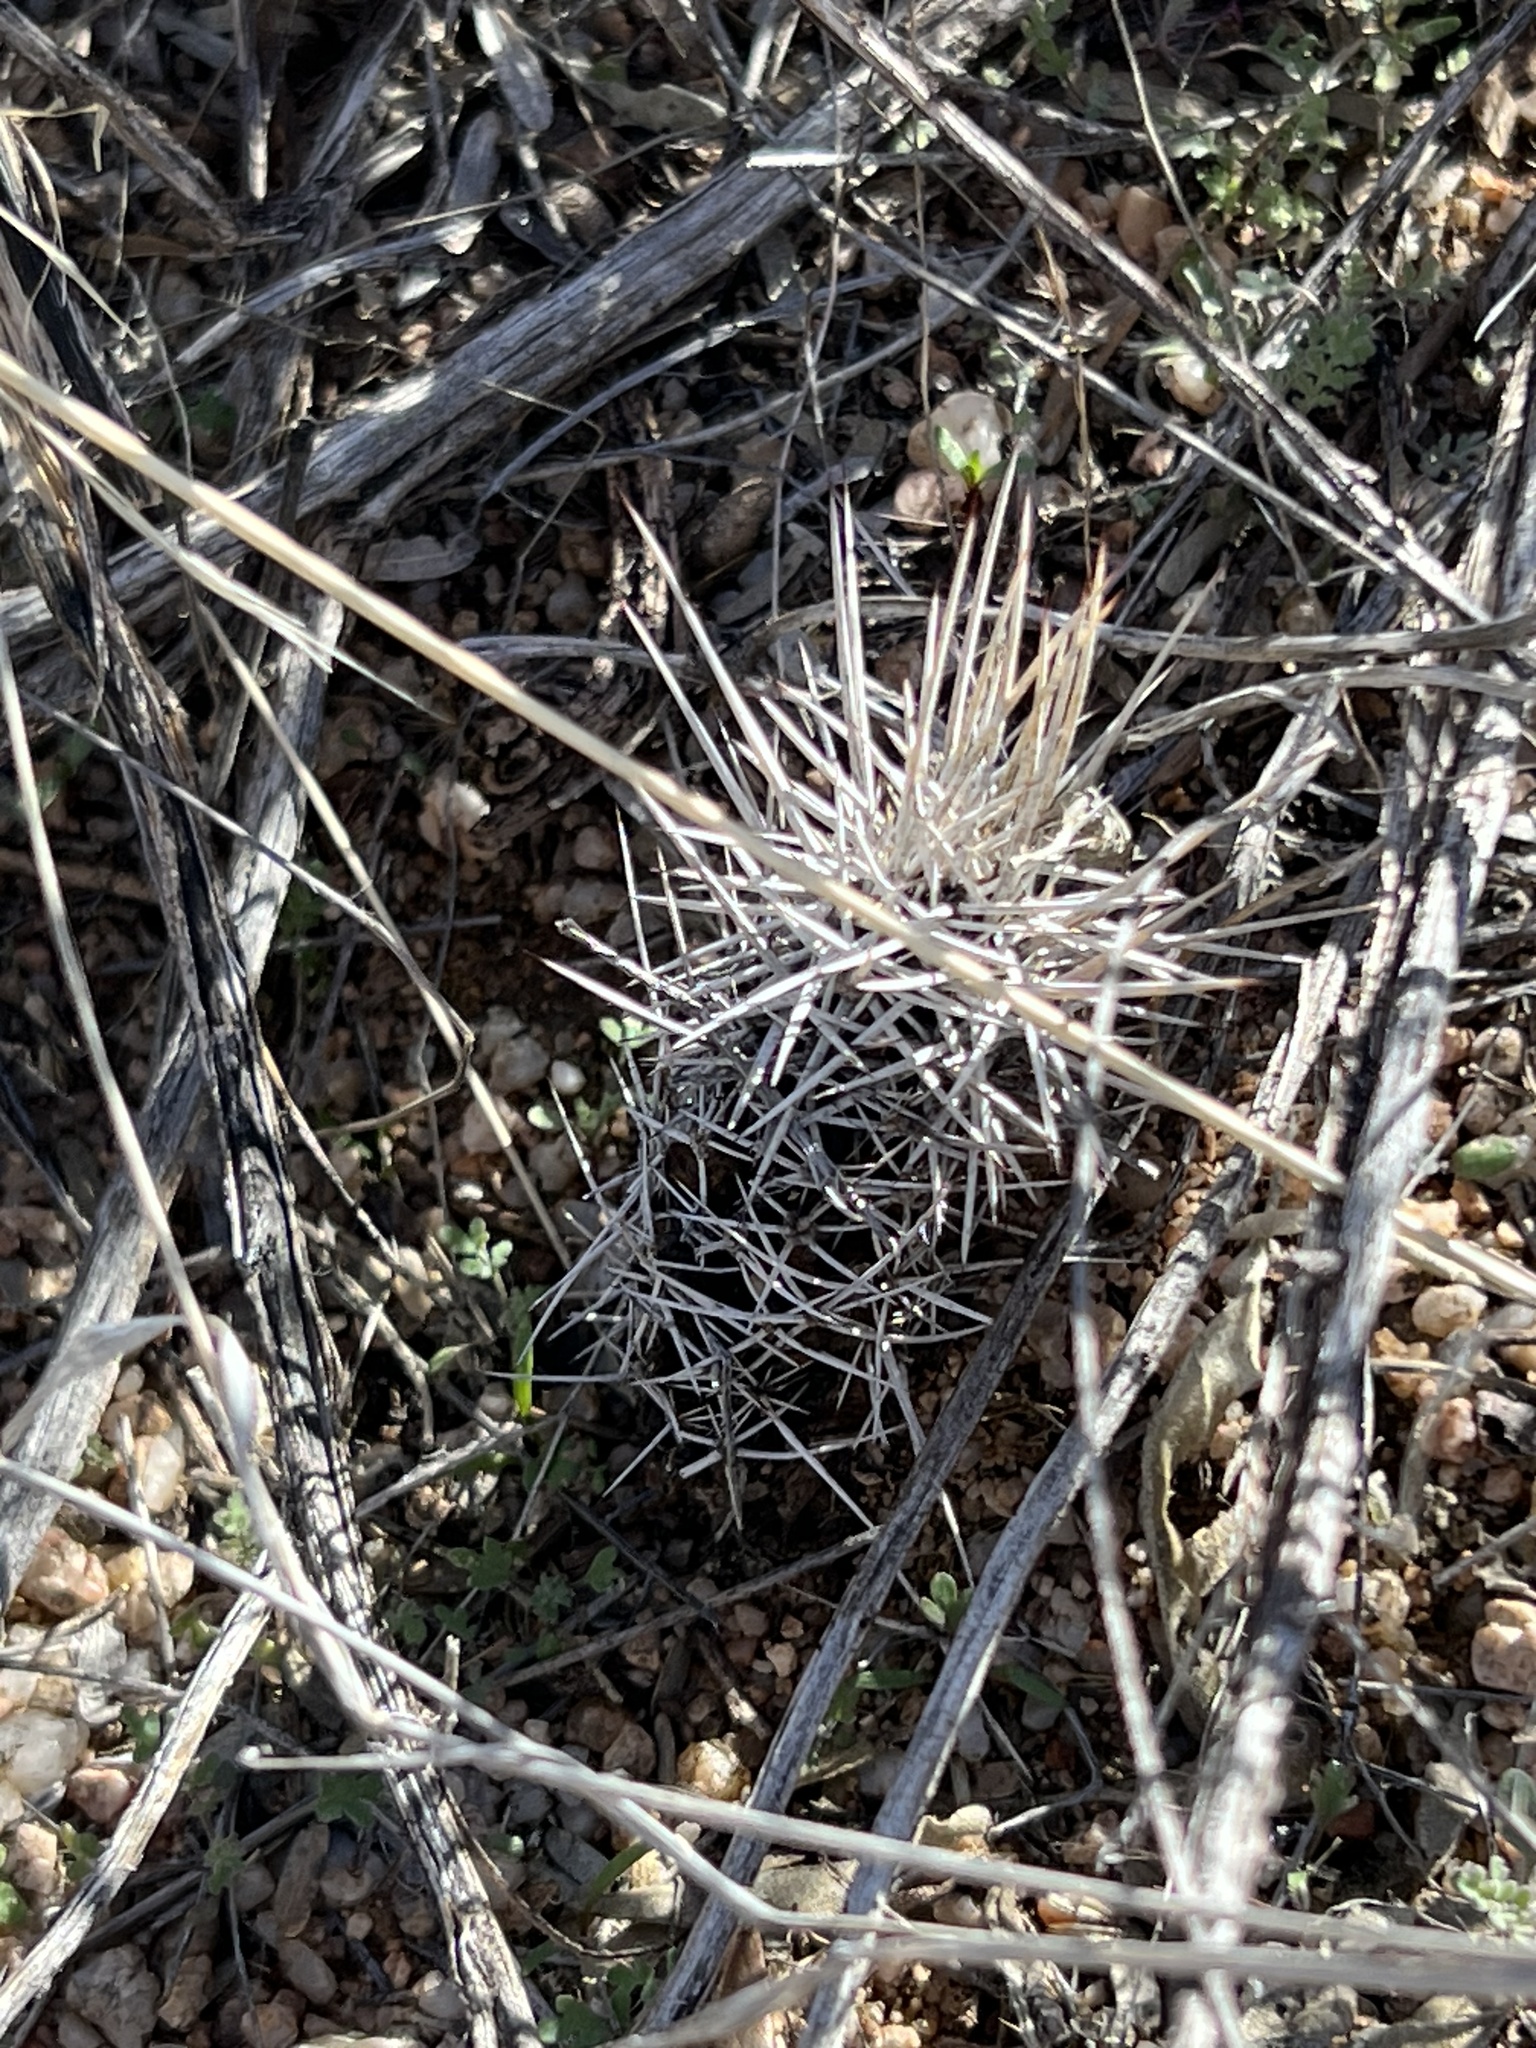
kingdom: Plantae
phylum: Tracheophyta
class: Magnoliopsida
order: Caryophyllales
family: Cactaceae
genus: Echinocereus
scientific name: Echinocereus fendleri
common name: Fendler's hedgehog cactus
